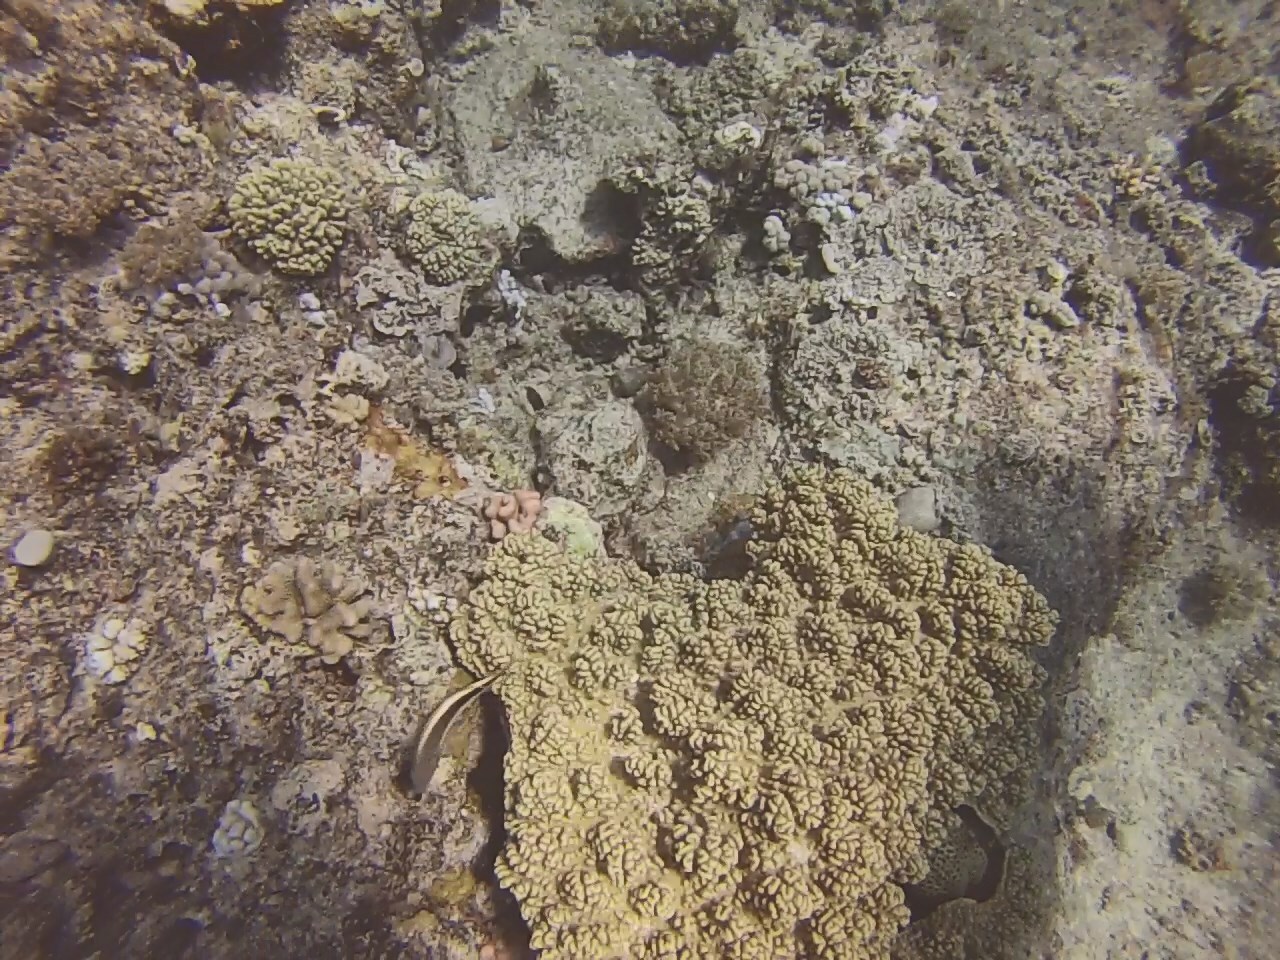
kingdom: Animalia
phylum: Chordata
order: Perciformes
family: Cirrhitidae
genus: Paracirrhites
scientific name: Paracirrhites forsteri
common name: Freckled hawkfish
